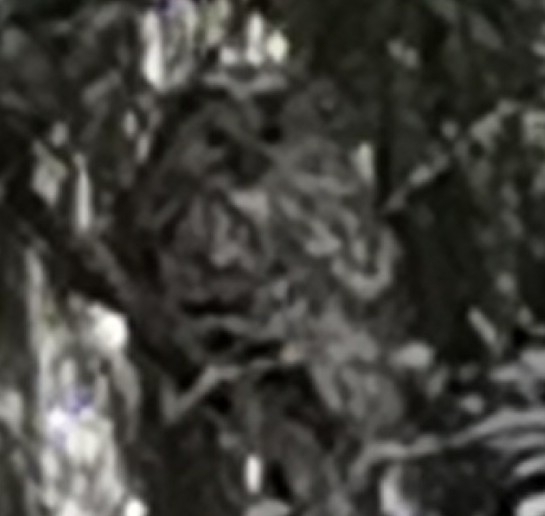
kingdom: Animalia
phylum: Chordata
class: Aves
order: Strigiformes
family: Strigidae
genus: Strix
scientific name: Strix uralensis
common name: Ural owl
